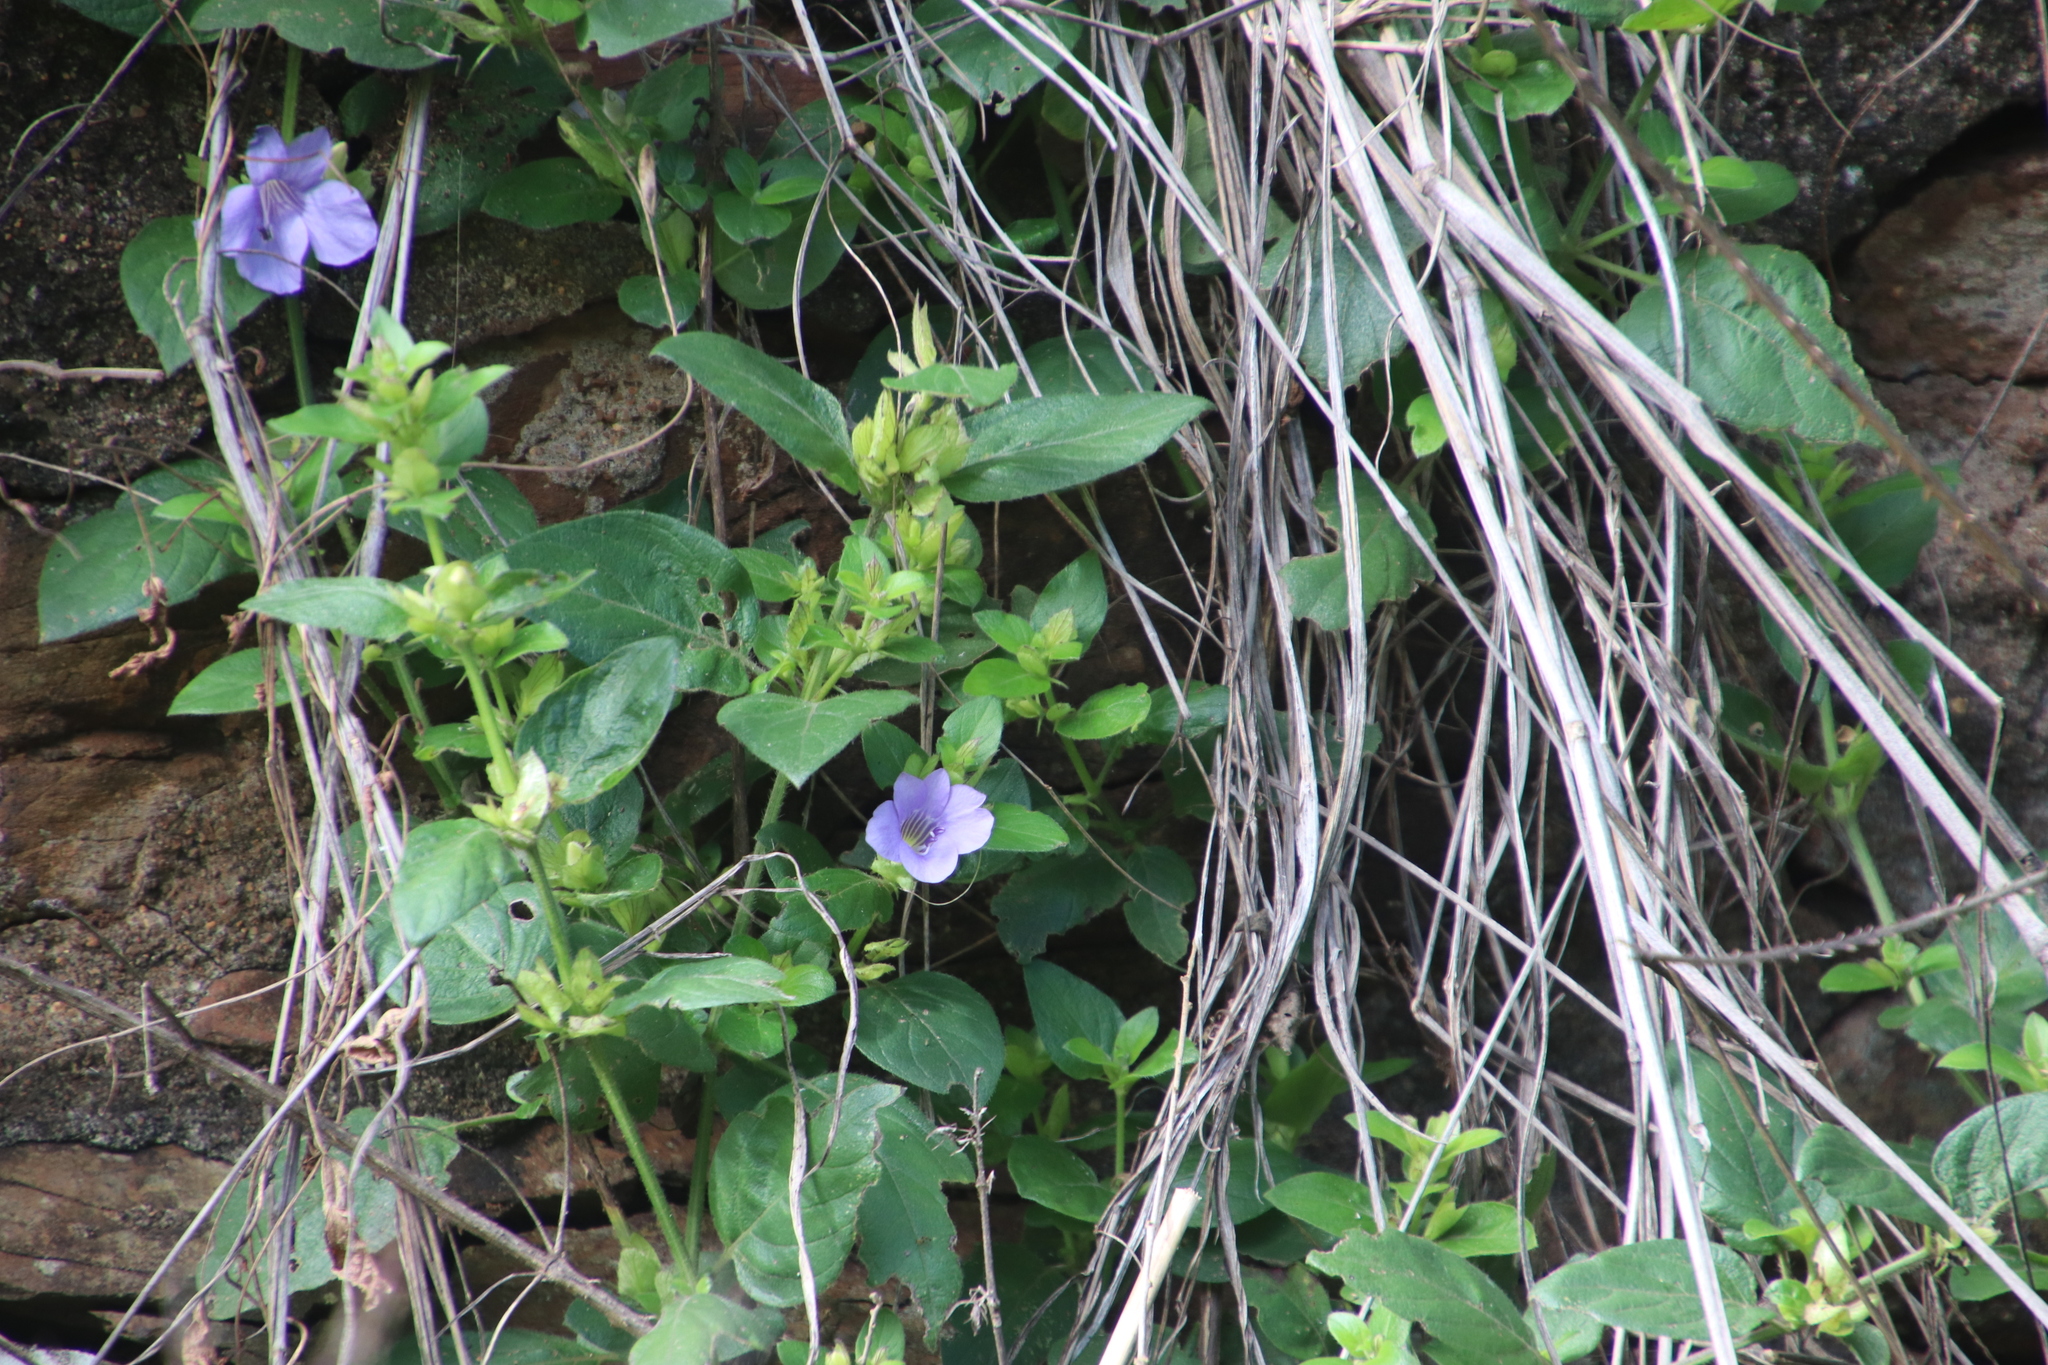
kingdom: Plantae
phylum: Tracheophyta
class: Magnoliopsida
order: Lamiales
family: Acanthaceae
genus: Barleria
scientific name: Barleria gueinzii
